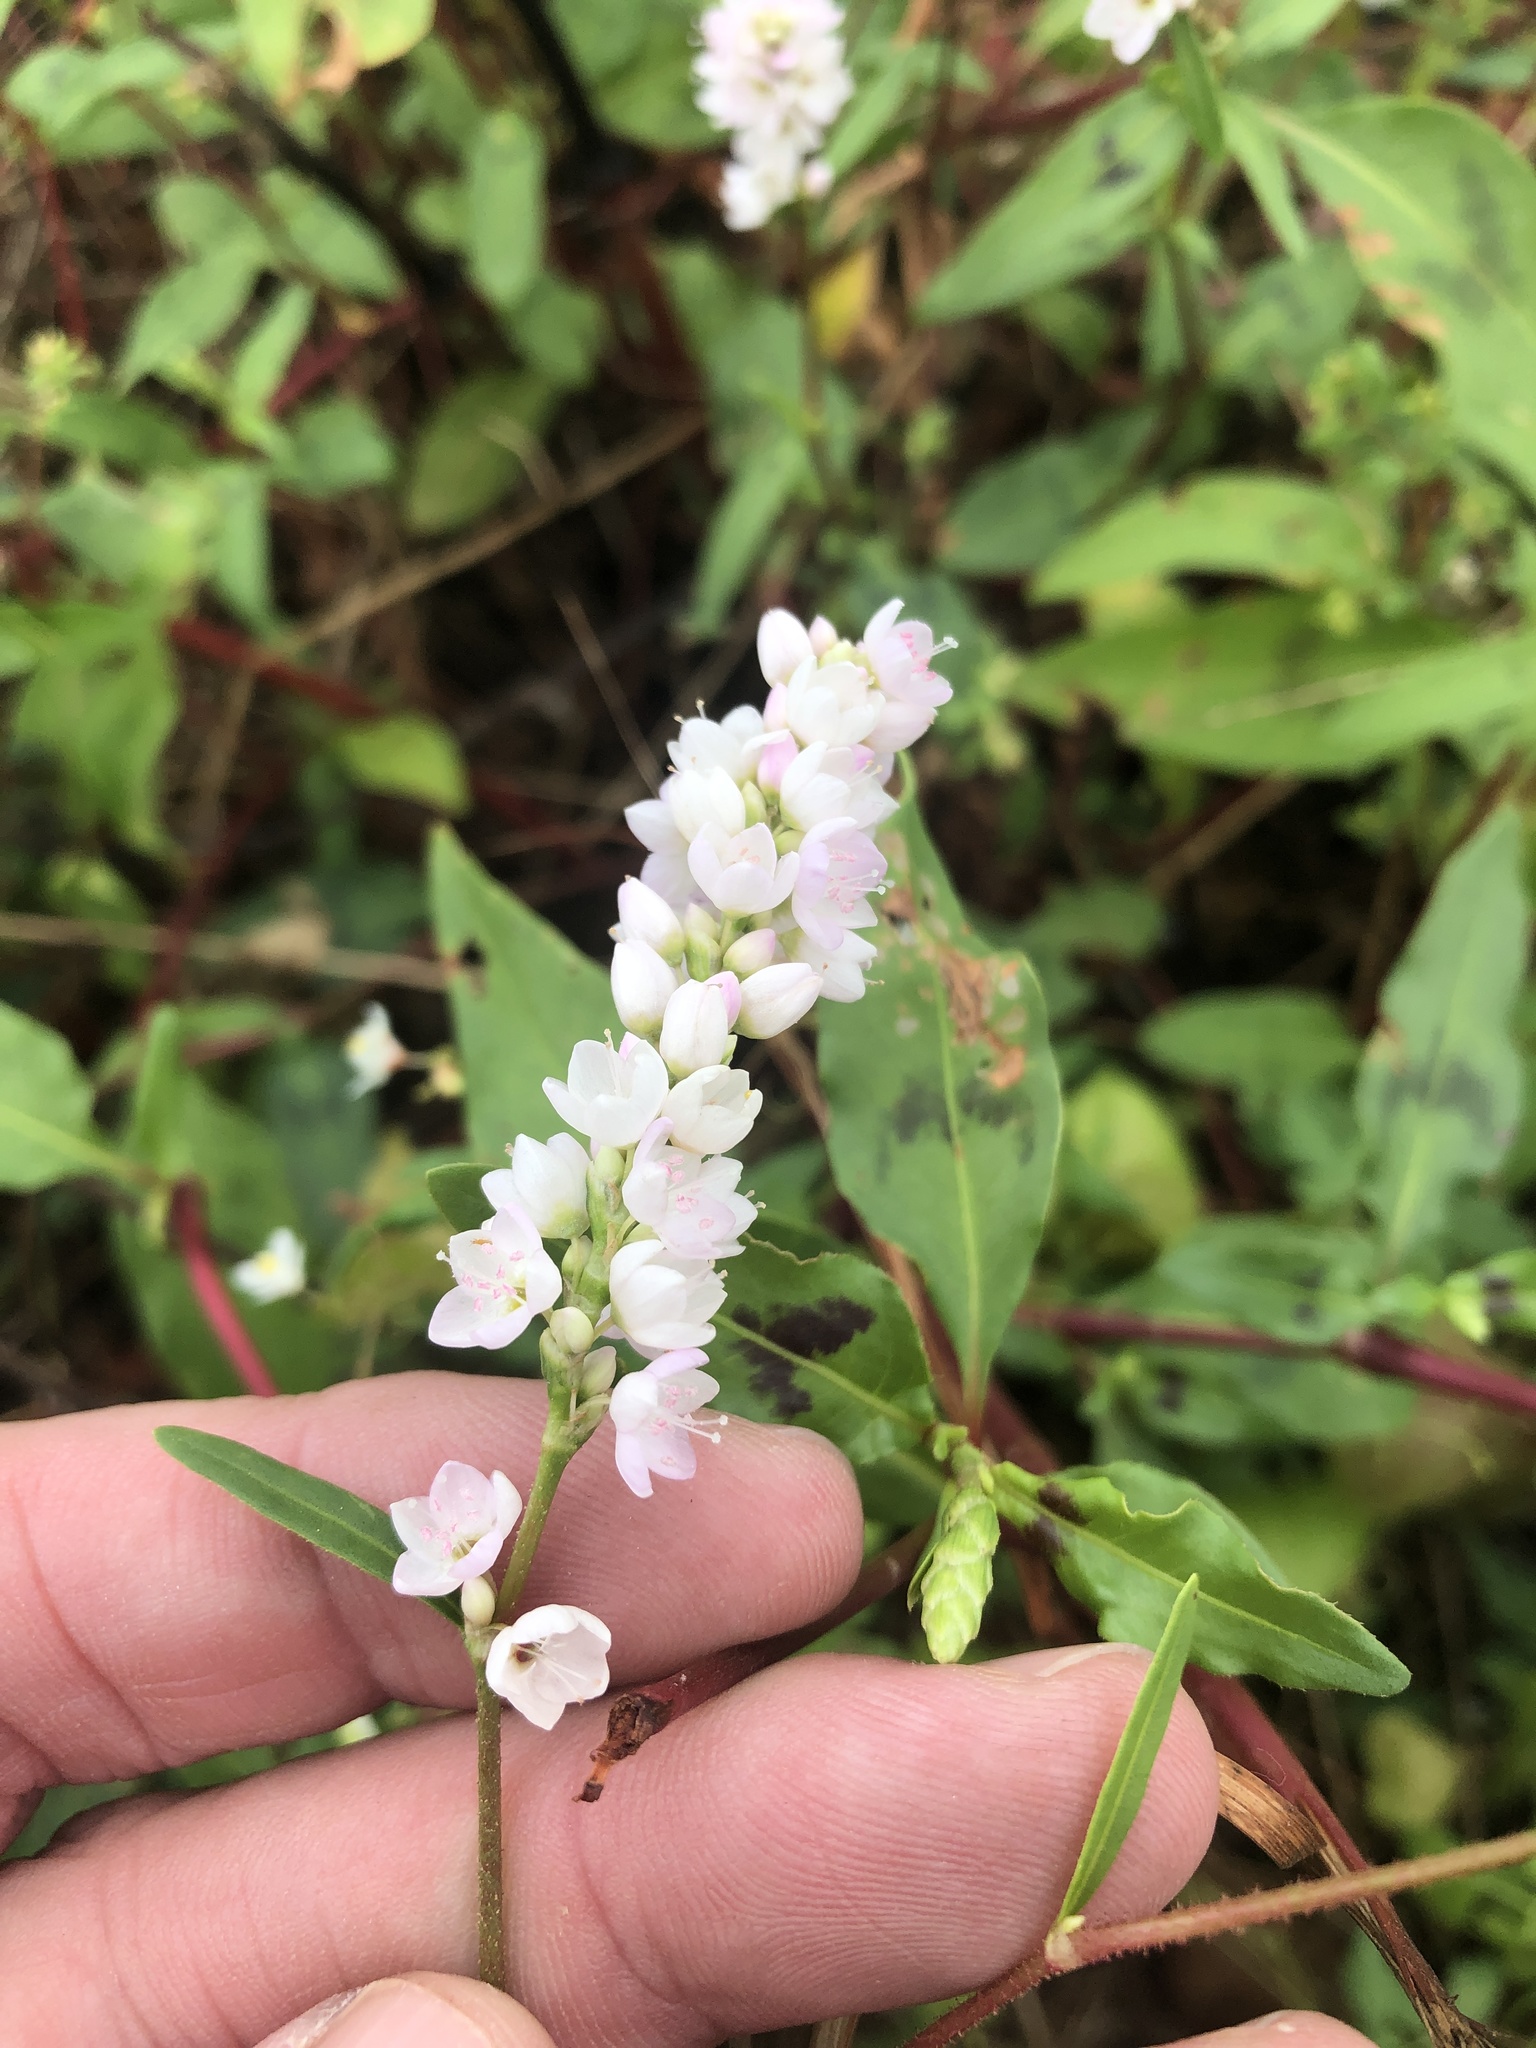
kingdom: Plantae
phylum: Tracheophyta
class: Magnoliopsida
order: Caryophyllales
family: Polygonaceae
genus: Persicaria
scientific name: Persicaria bicornis
